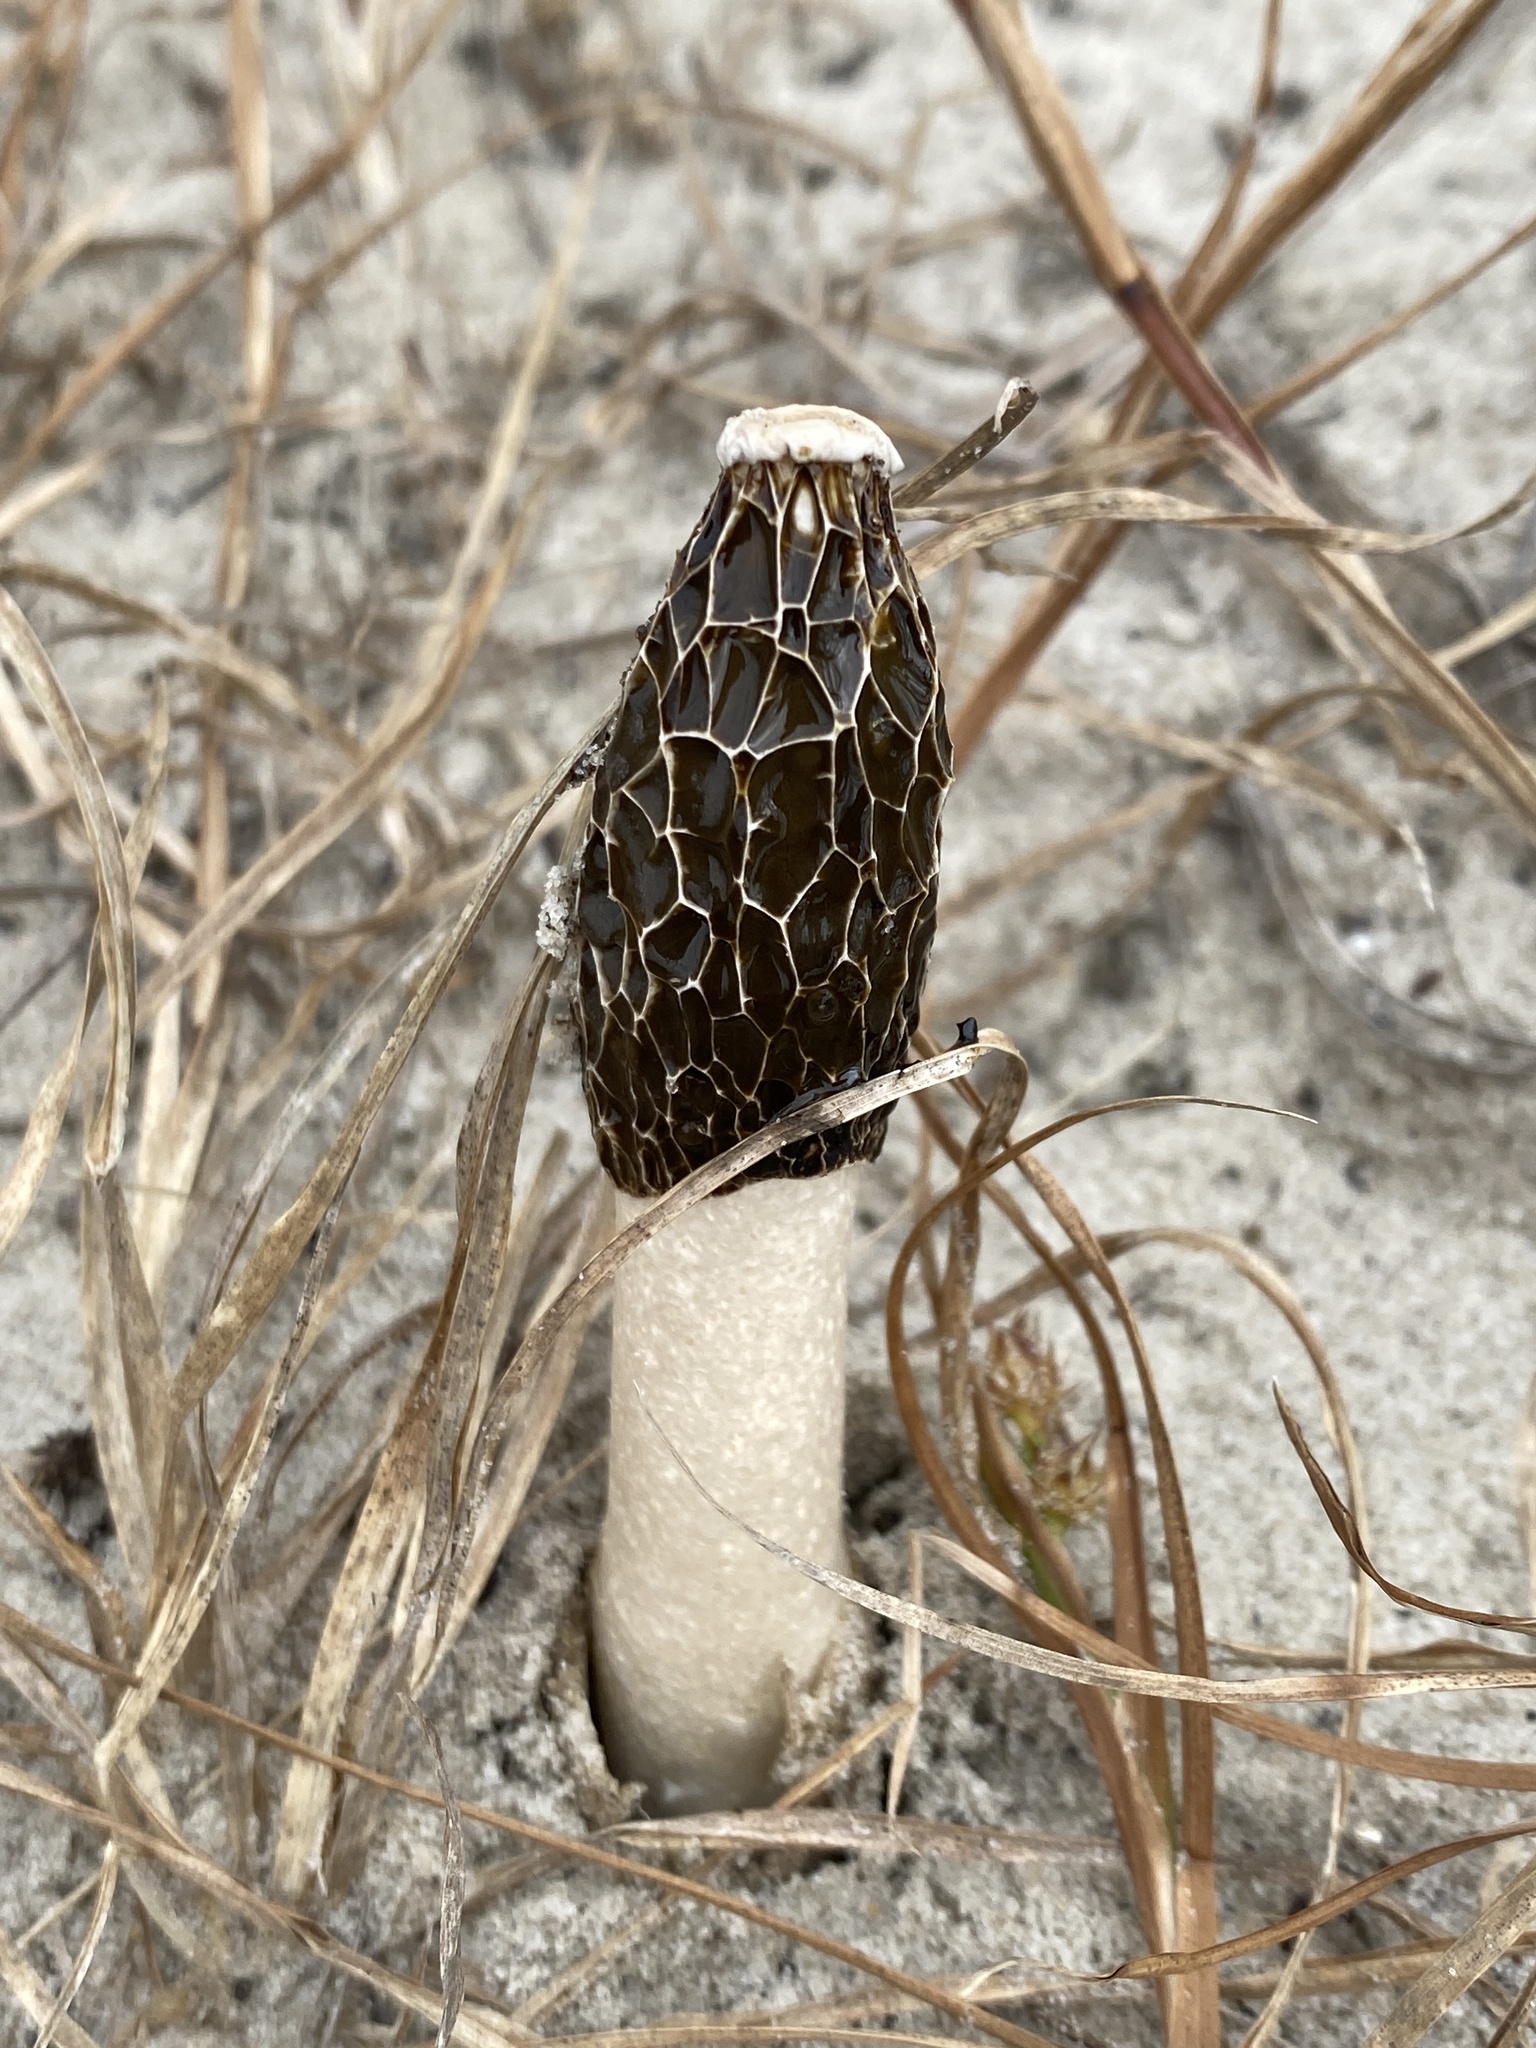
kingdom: Fungi
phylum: Basidiomycota
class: Agaricomycetes
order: Phallales
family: Phallaceae
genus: Phallus
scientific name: Phallus
